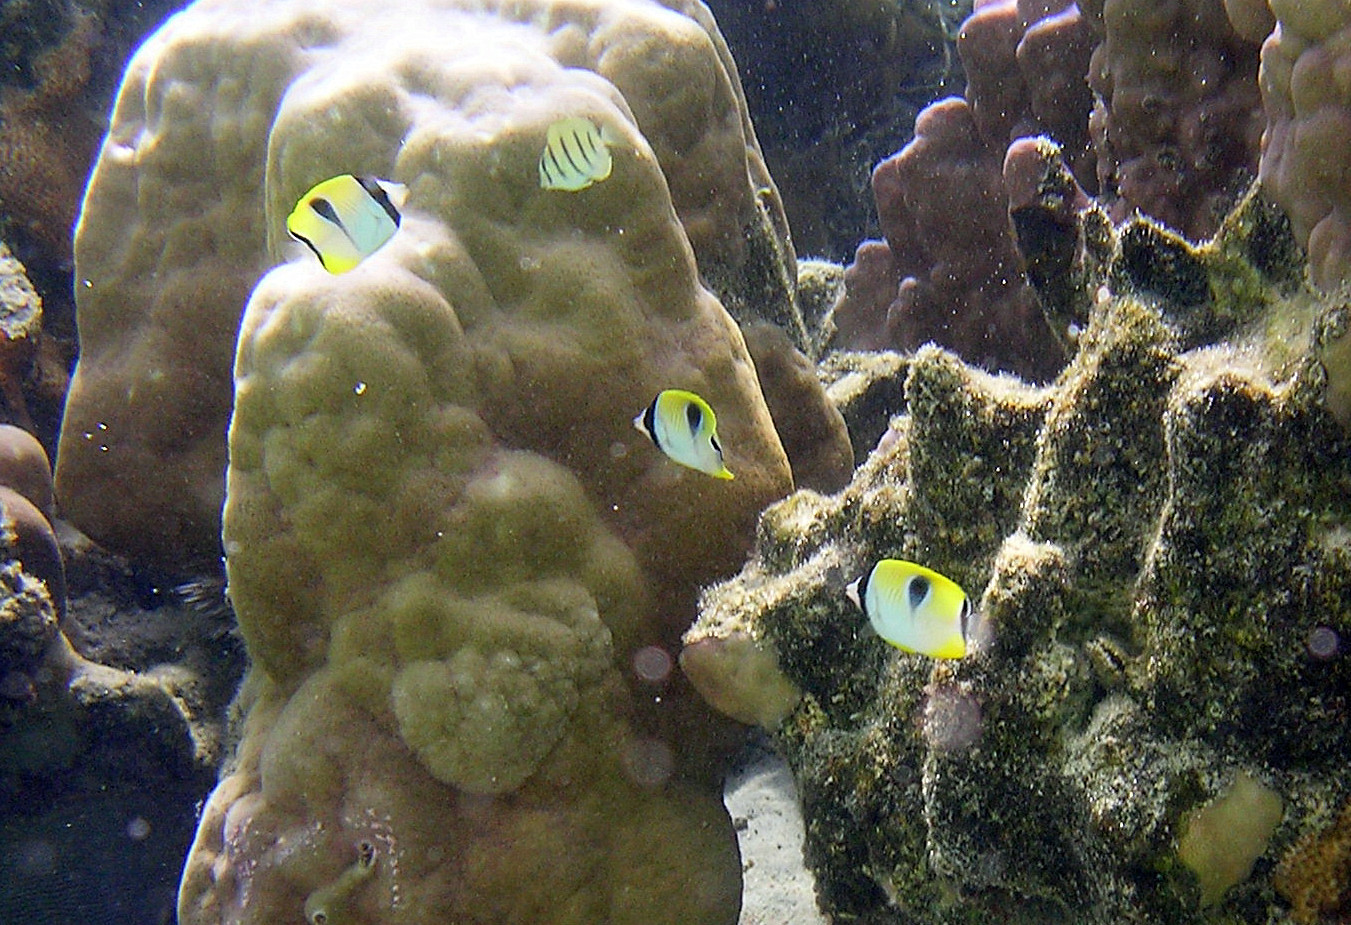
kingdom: Animalia
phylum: Chordata
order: Perciformes
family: Chaetodontidae
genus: Chaetodon
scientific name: Chaetodon unimaculatus
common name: Teardrop butterflyfish
